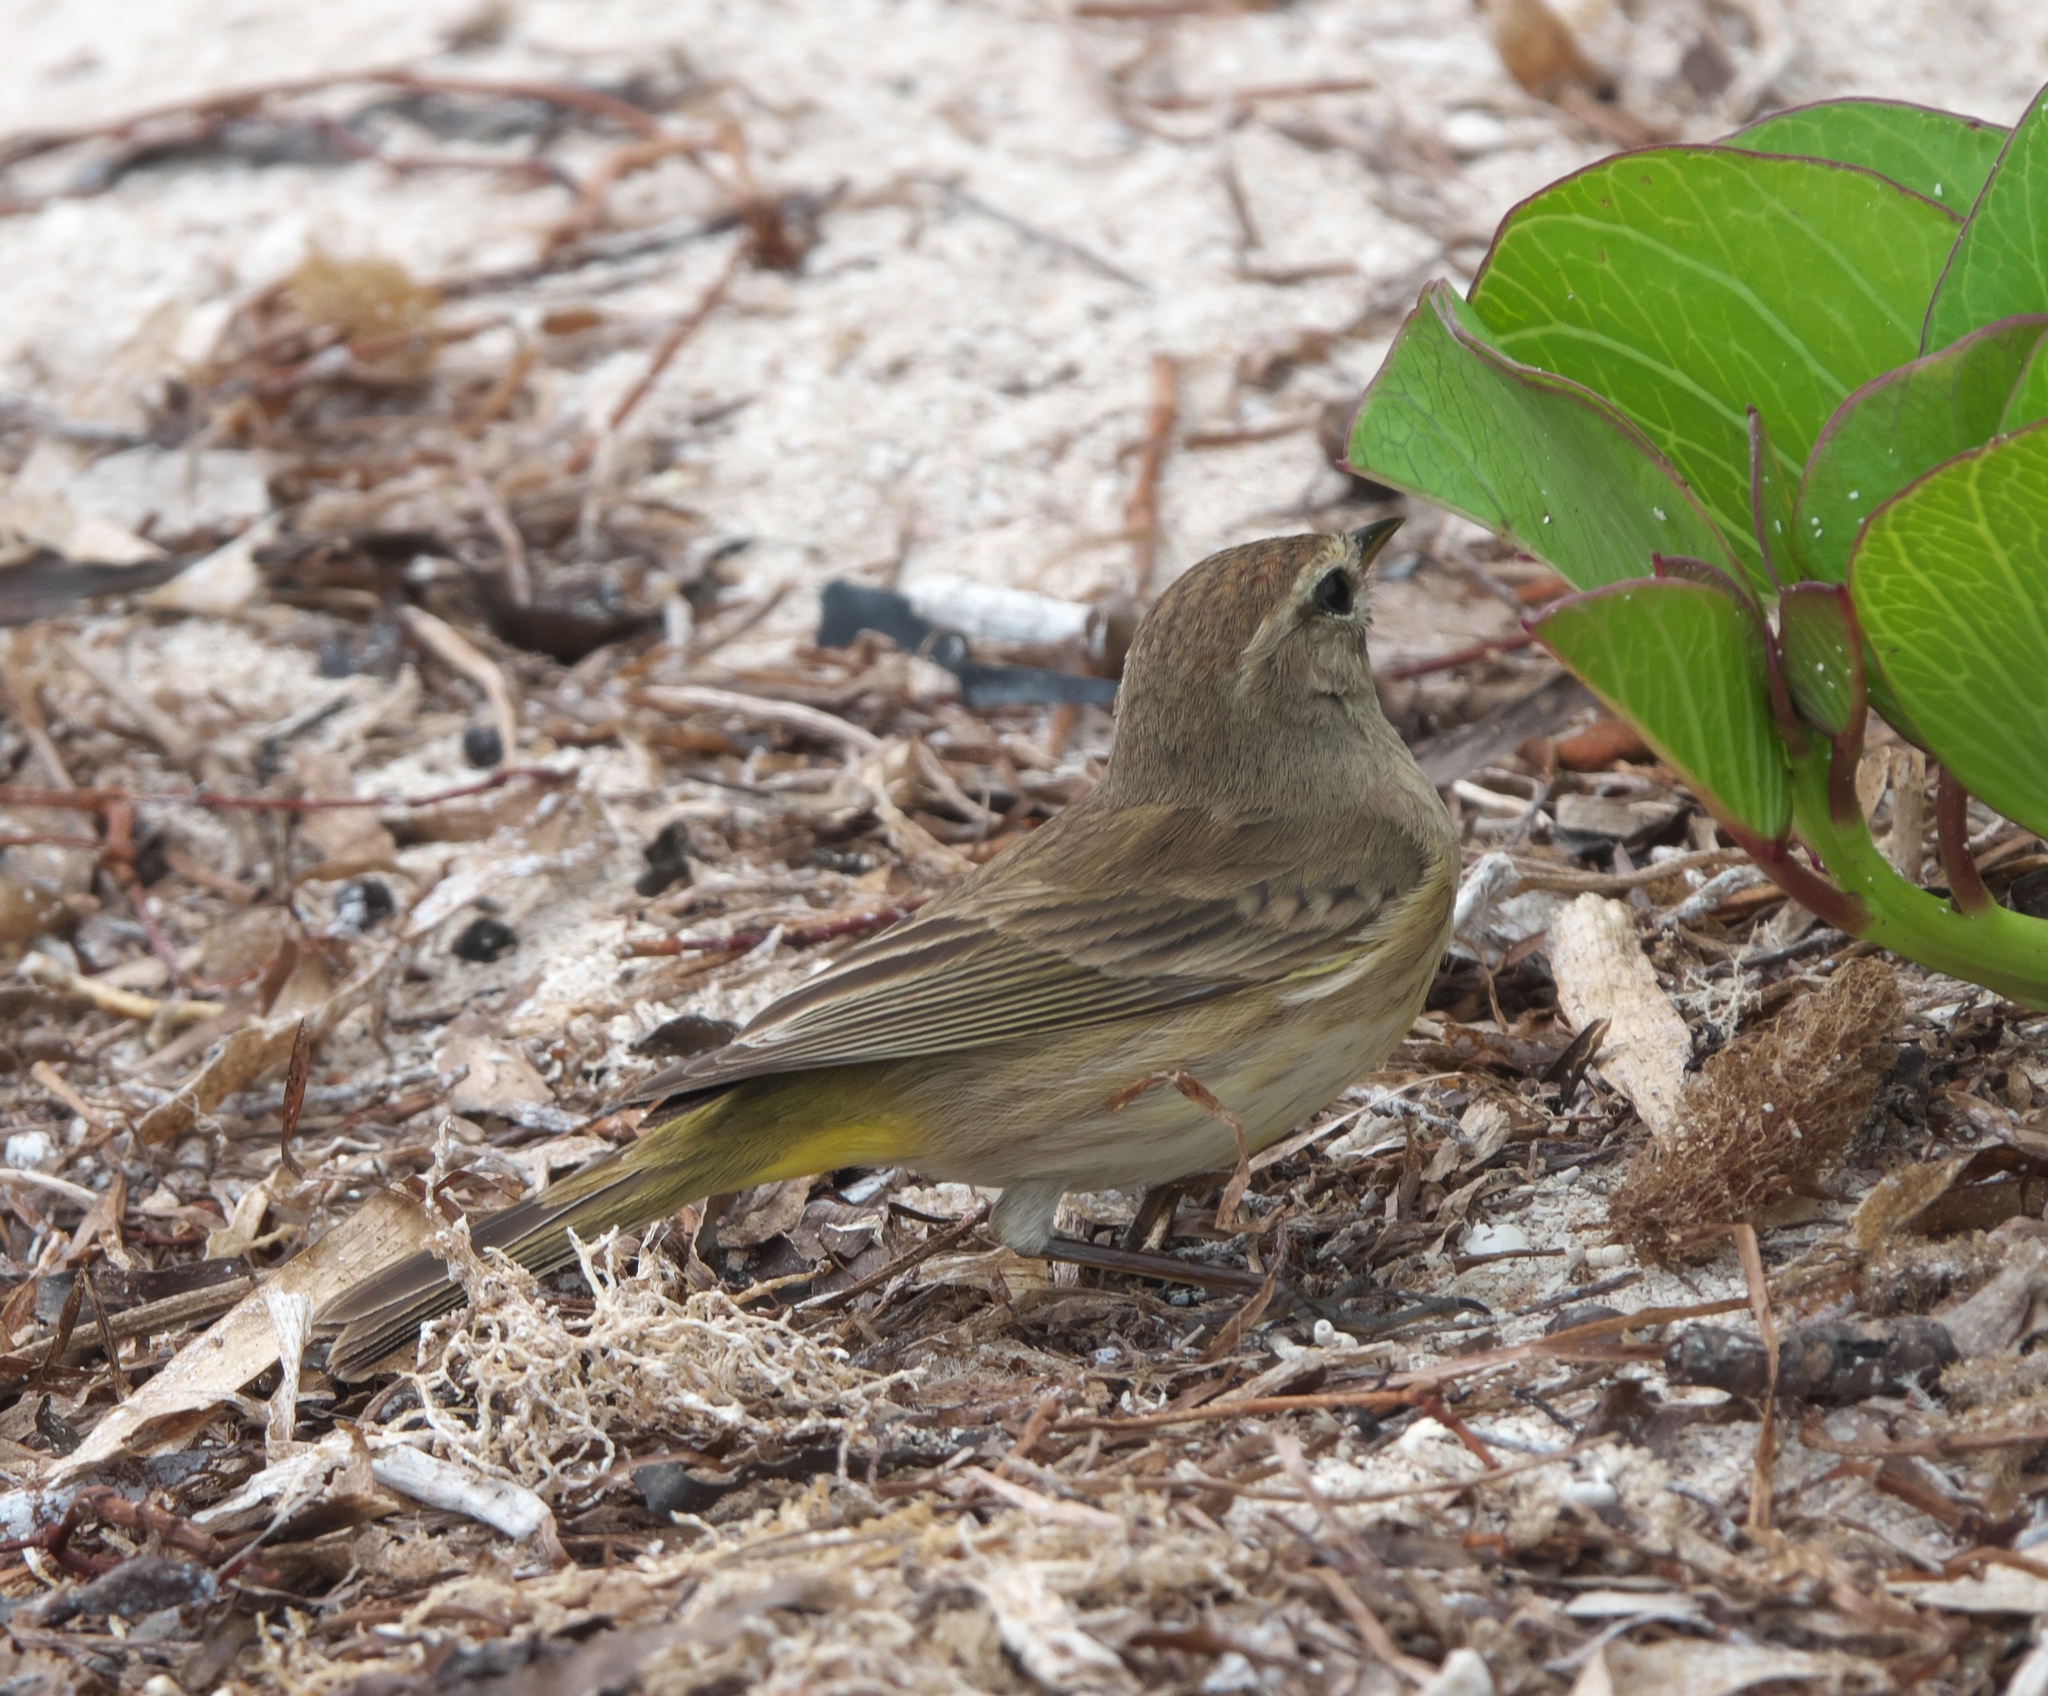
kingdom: Animalia
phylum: Chordata
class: Aves
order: Passeriformes
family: Parulidae
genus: Setophaga
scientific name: Setophaga palmarum
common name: Palm warbler
